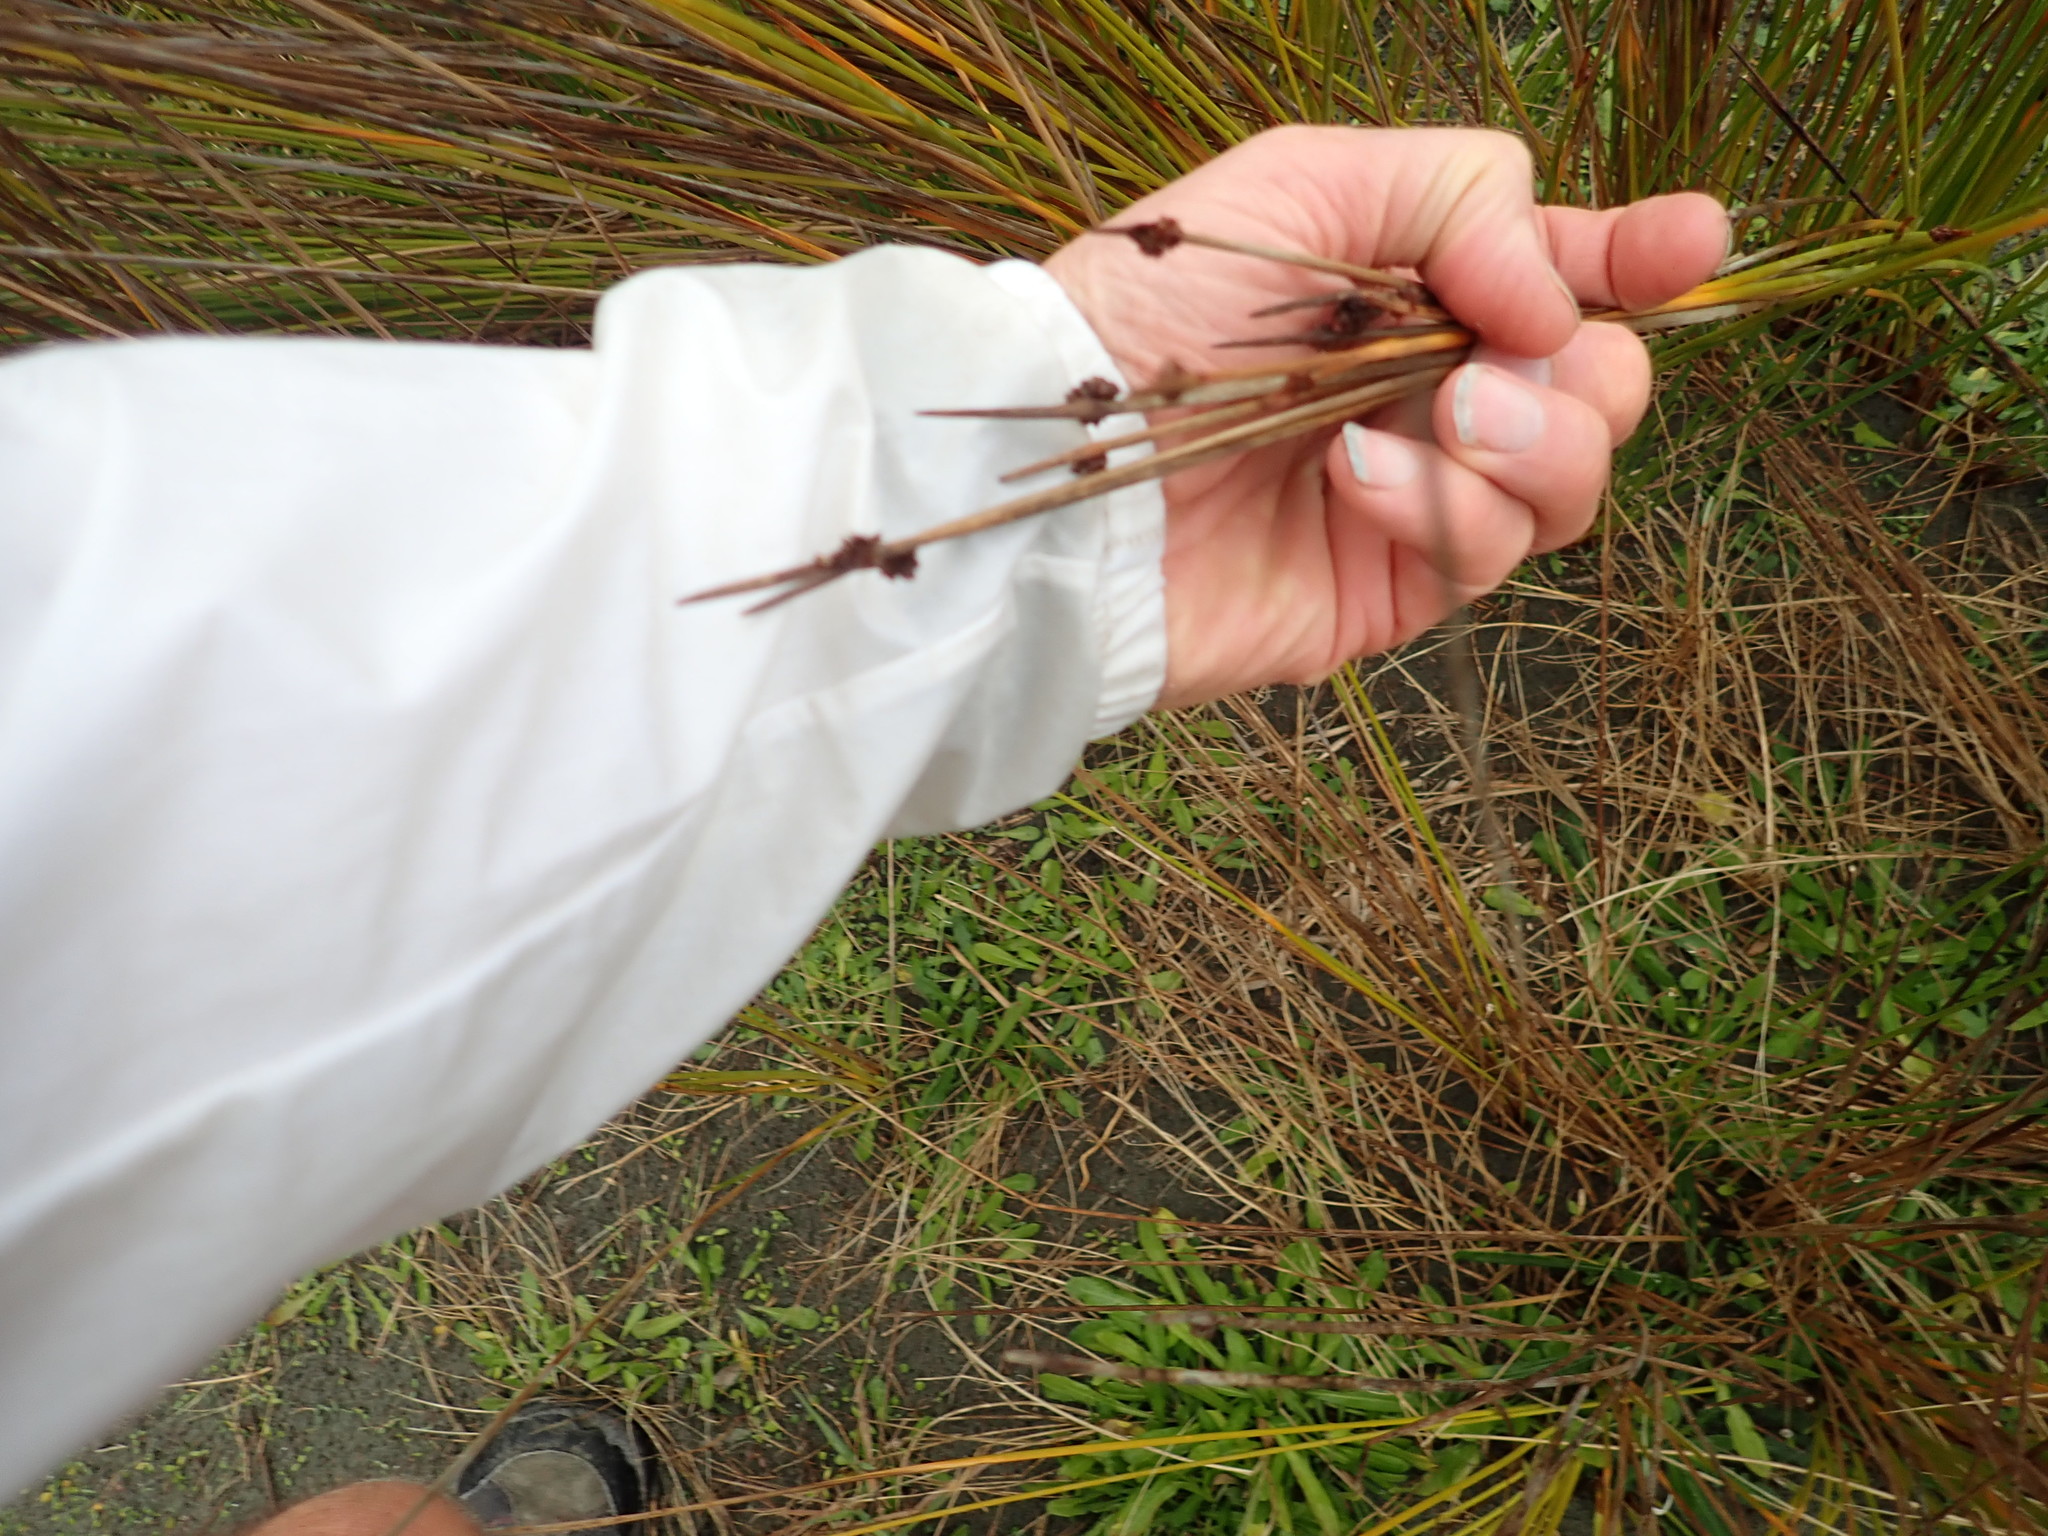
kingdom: Plantae
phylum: Tracheophyta
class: Liliopsida
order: Poales
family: Cyperaceae
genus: Ficinia
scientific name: Ficinia nodosa
